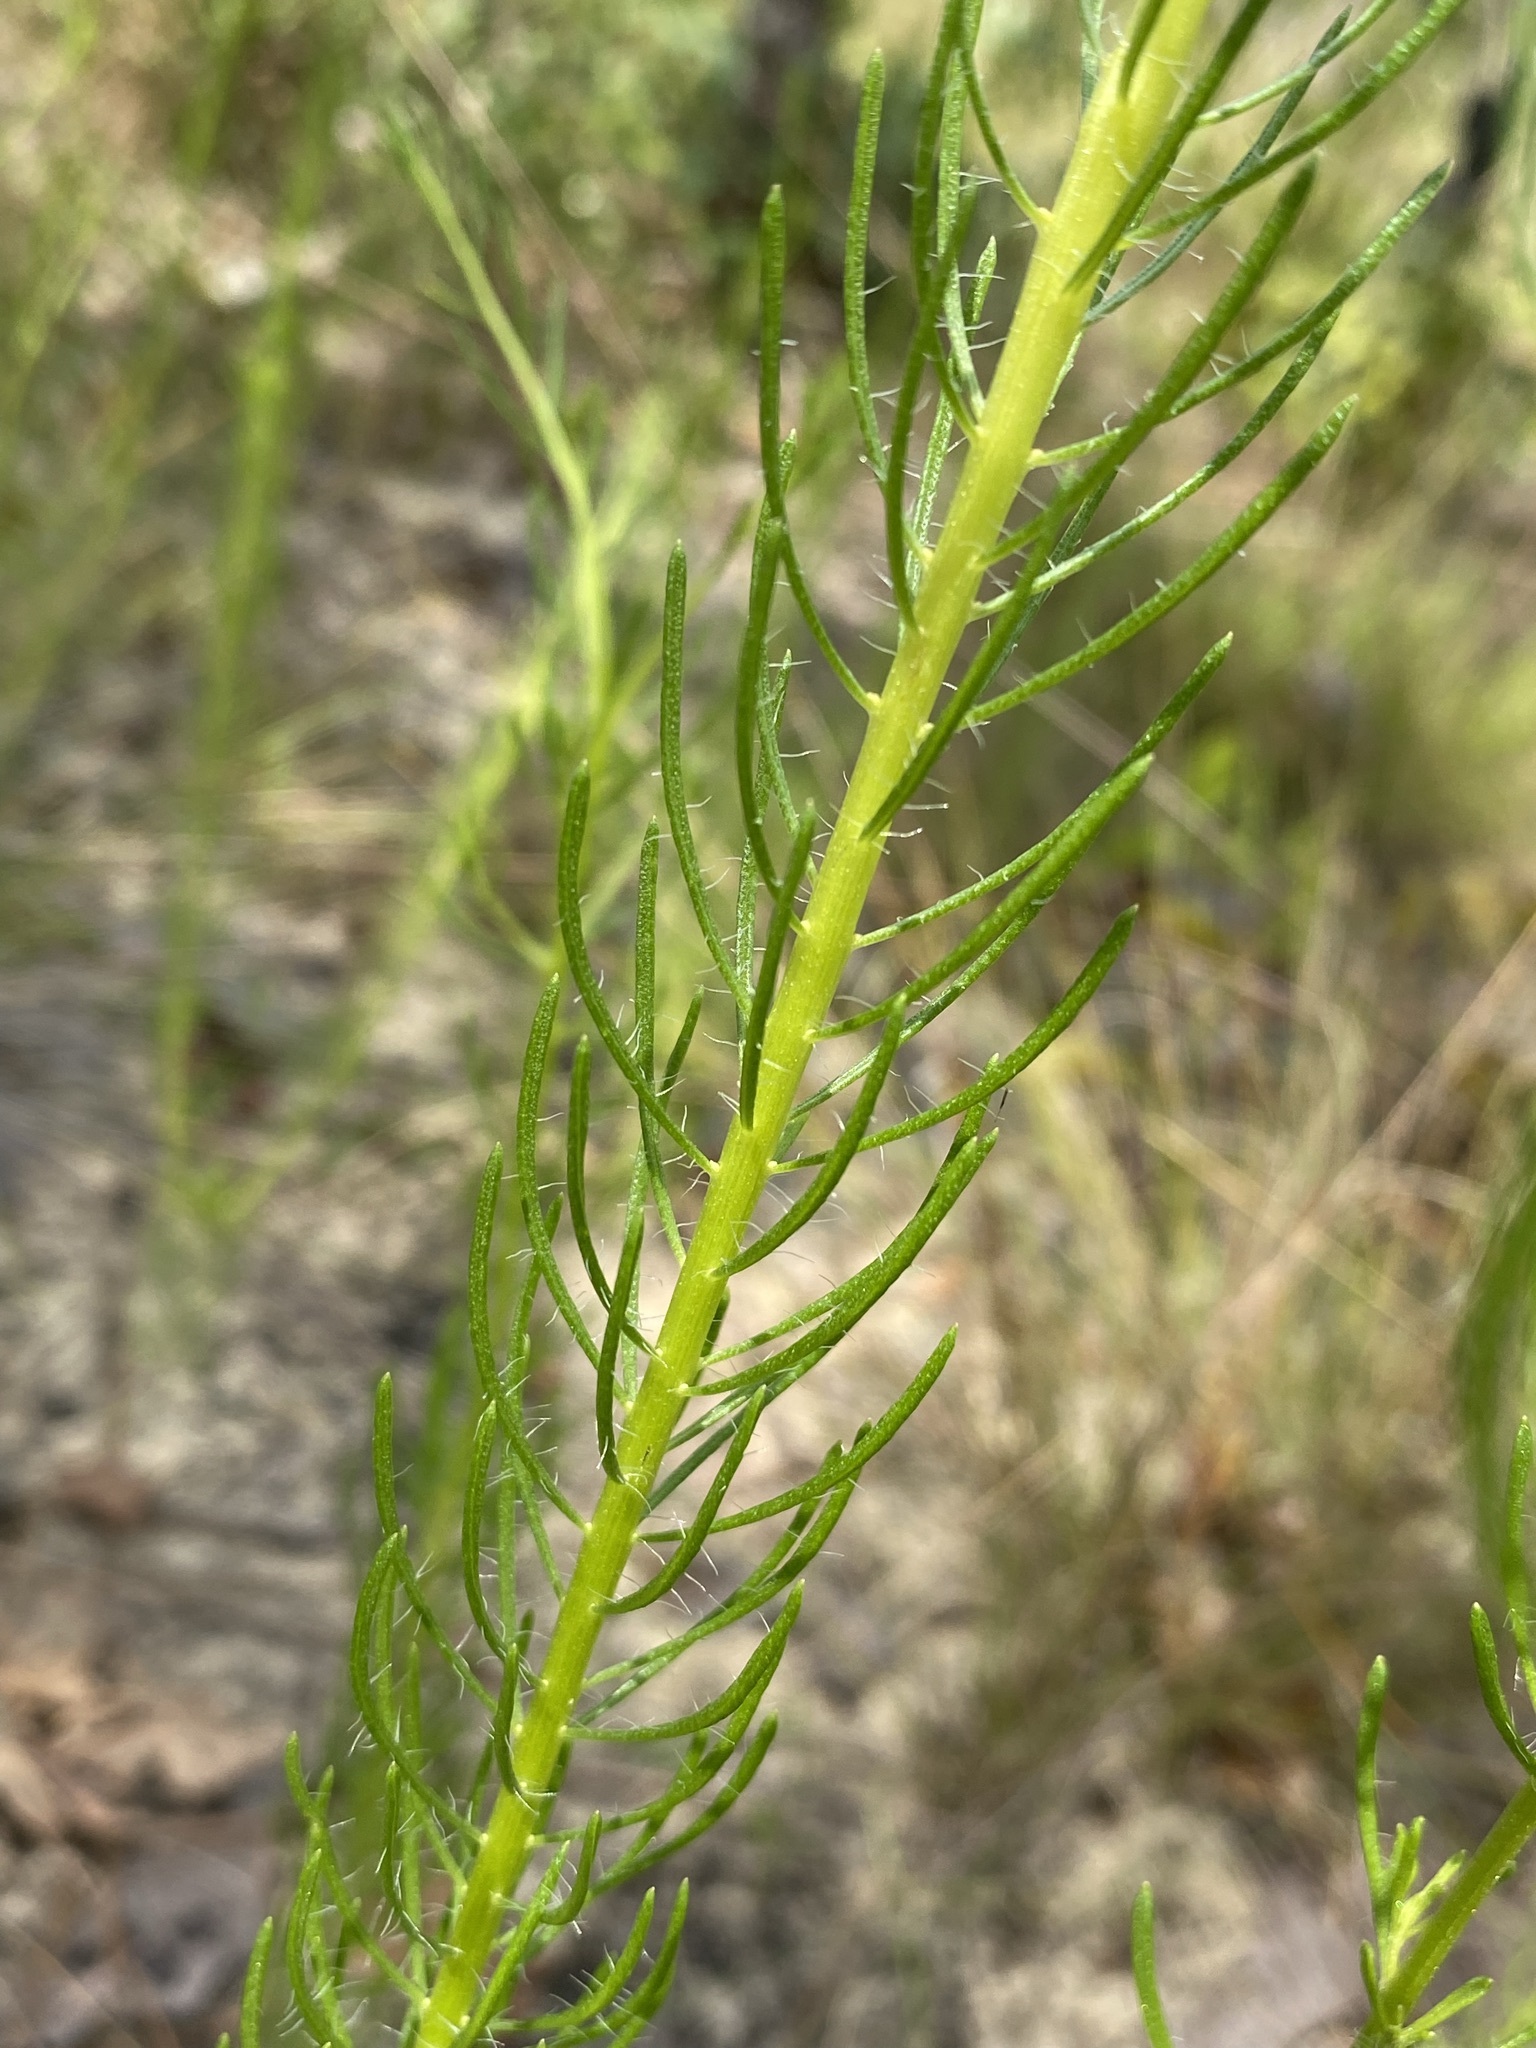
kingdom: Plantae
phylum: Tracheophyta
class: Magnoliopsida
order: Asterales
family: Asteraceae
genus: Balduina
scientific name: Balduina angustifolia
